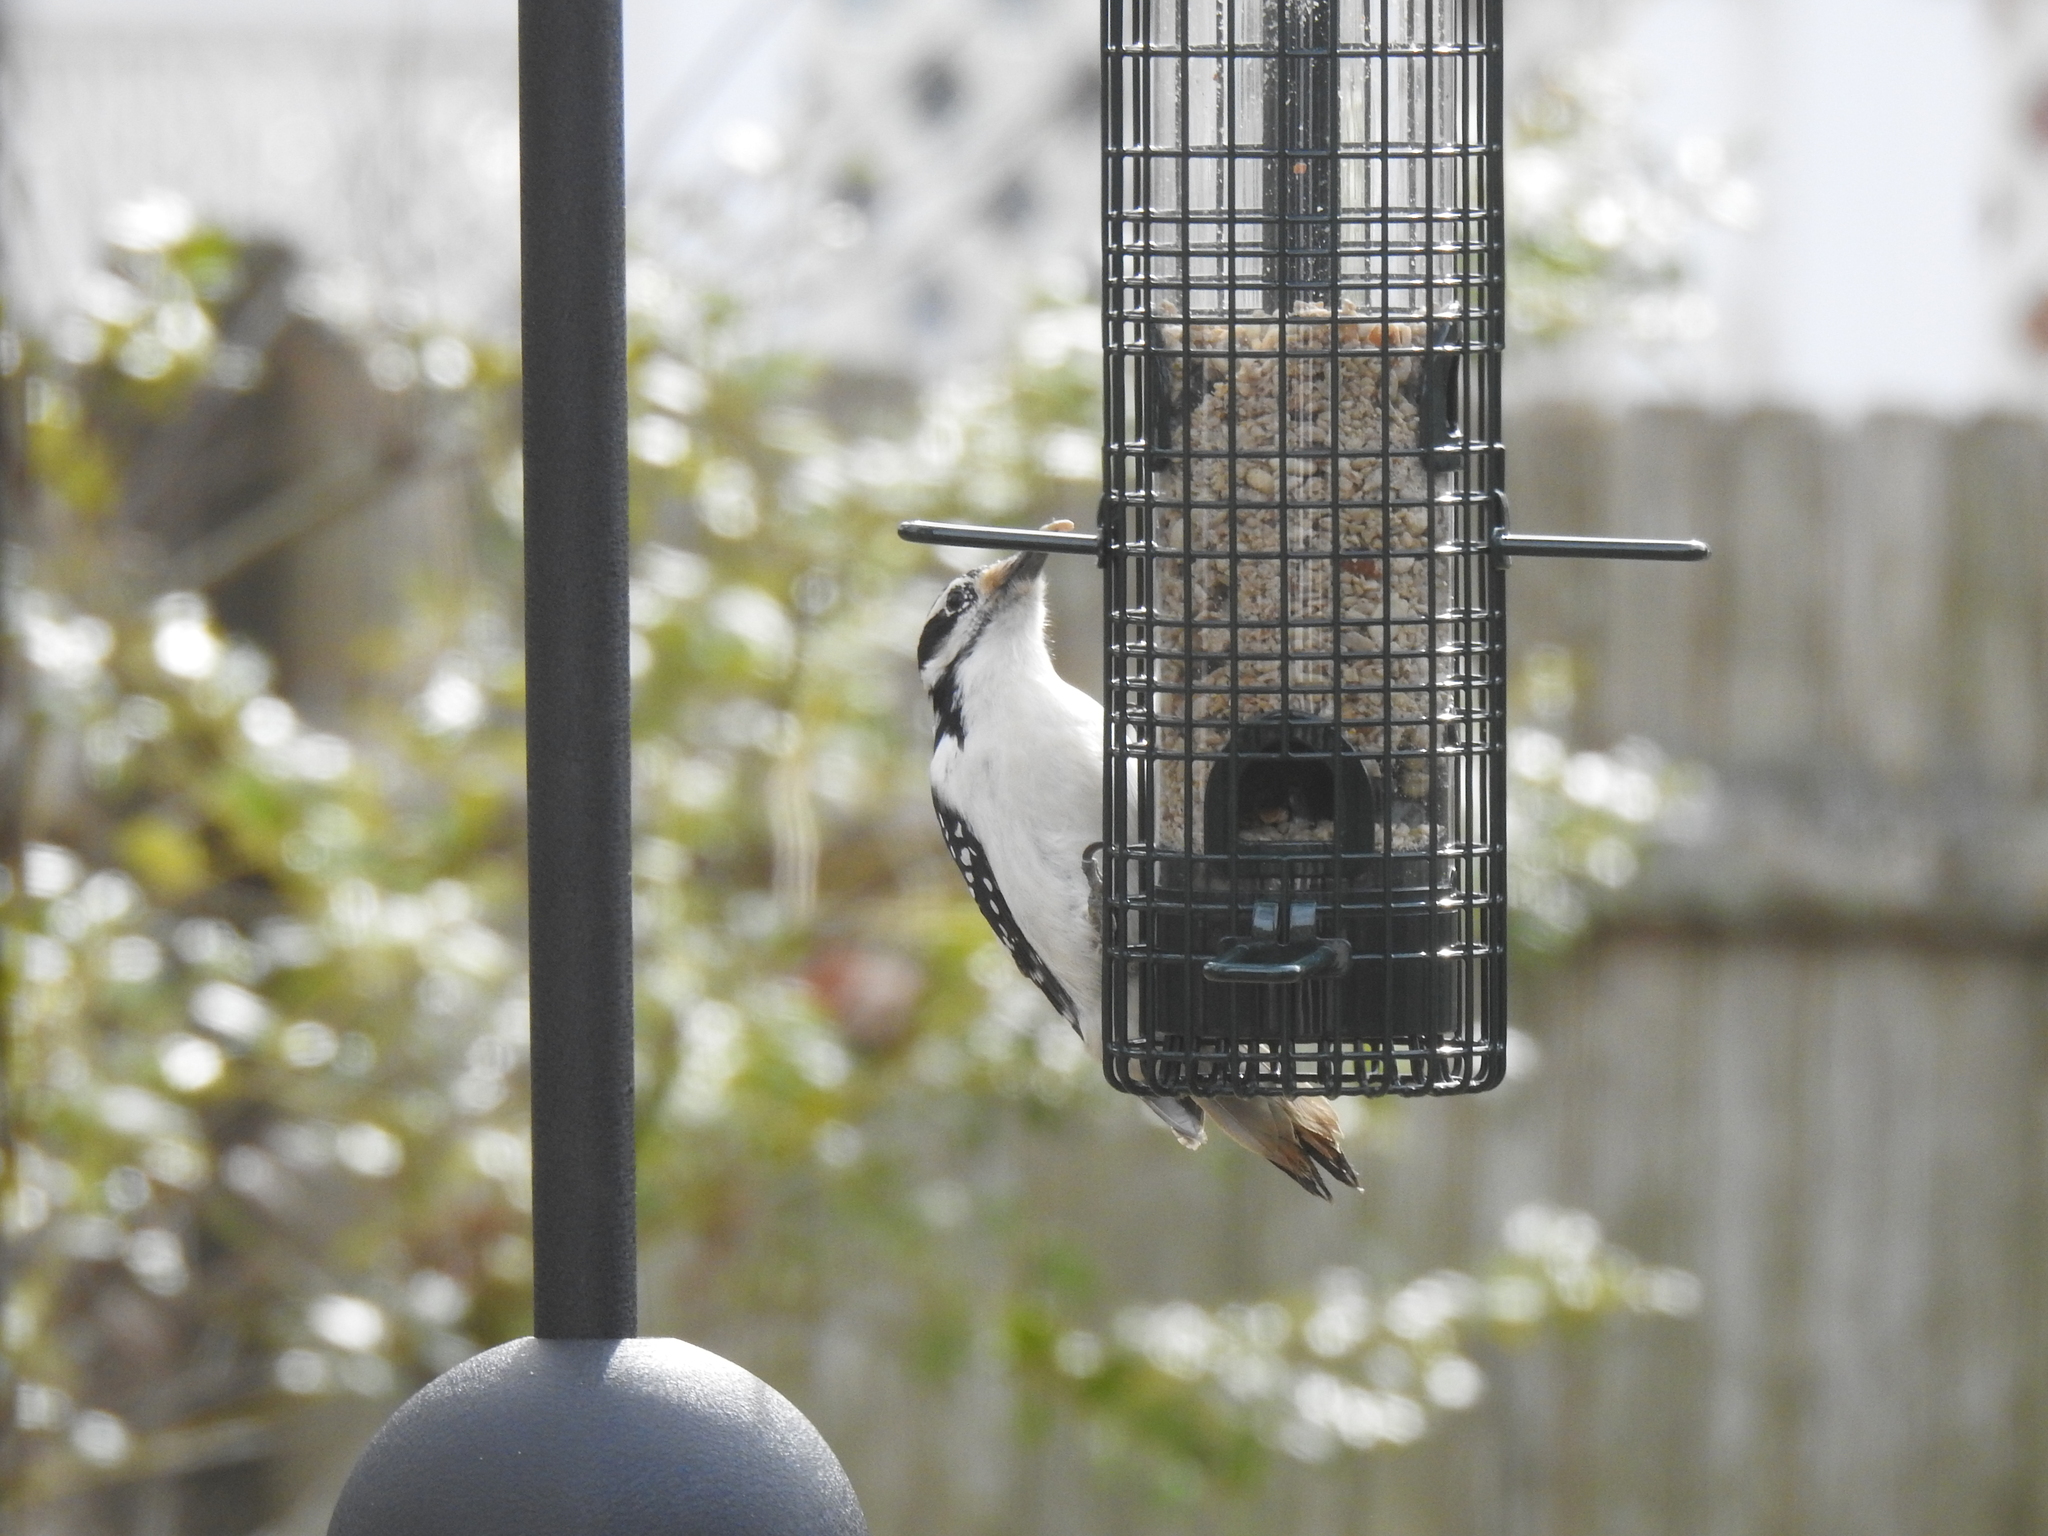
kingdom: Animalia
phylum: Chordata
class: Aves
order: Piciformes
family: Picidae
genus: Leuconotopicus
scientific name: Leuconotopicus villosus
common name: Hairy woodpecker
